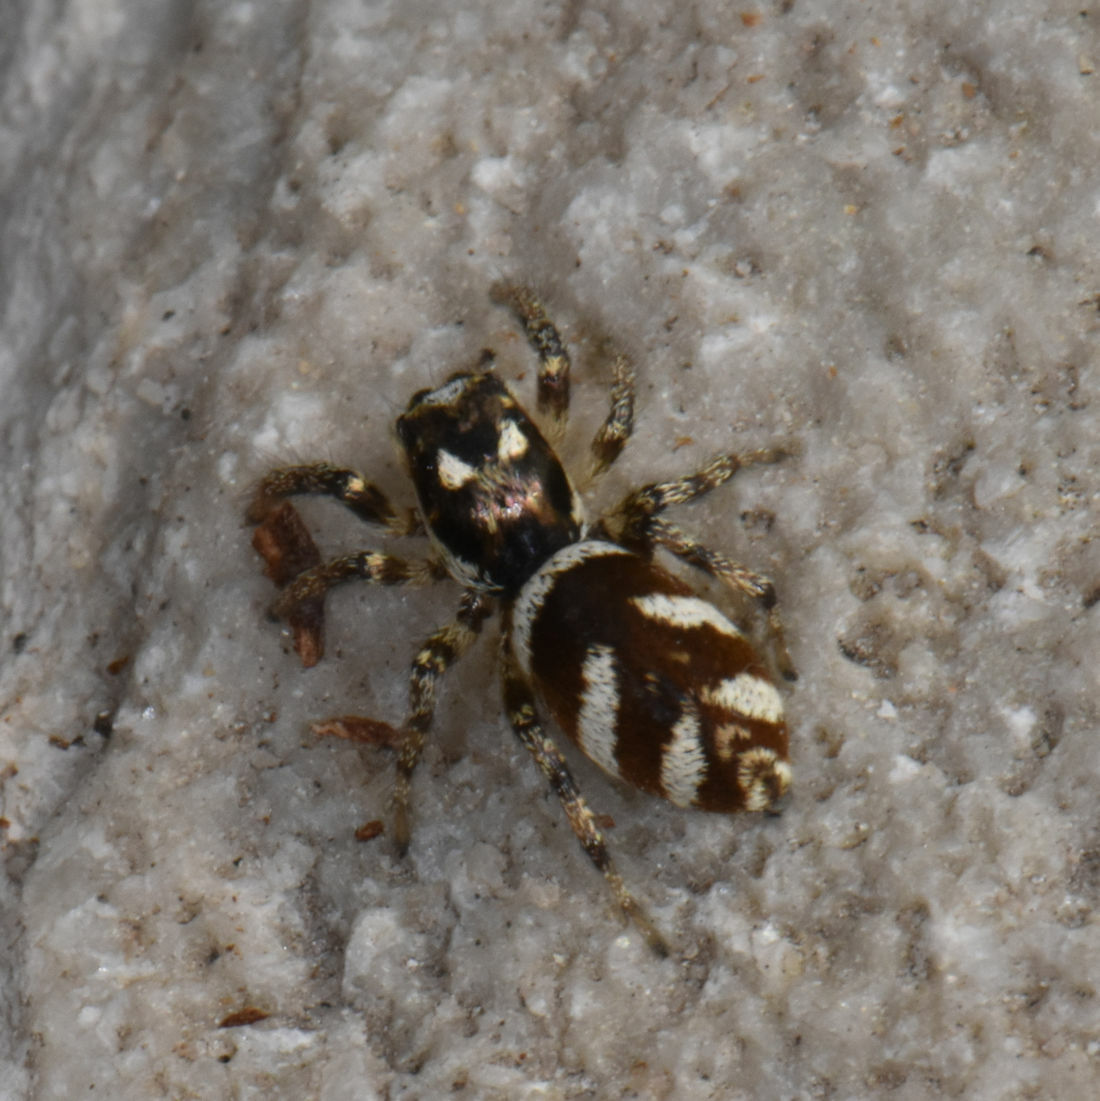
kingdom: Animalia
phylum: Arthropoda
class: Arachnida
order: Araneae
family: Salticidae
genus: Salticus
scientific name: Salticus scenicus
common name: Zebra jumper
